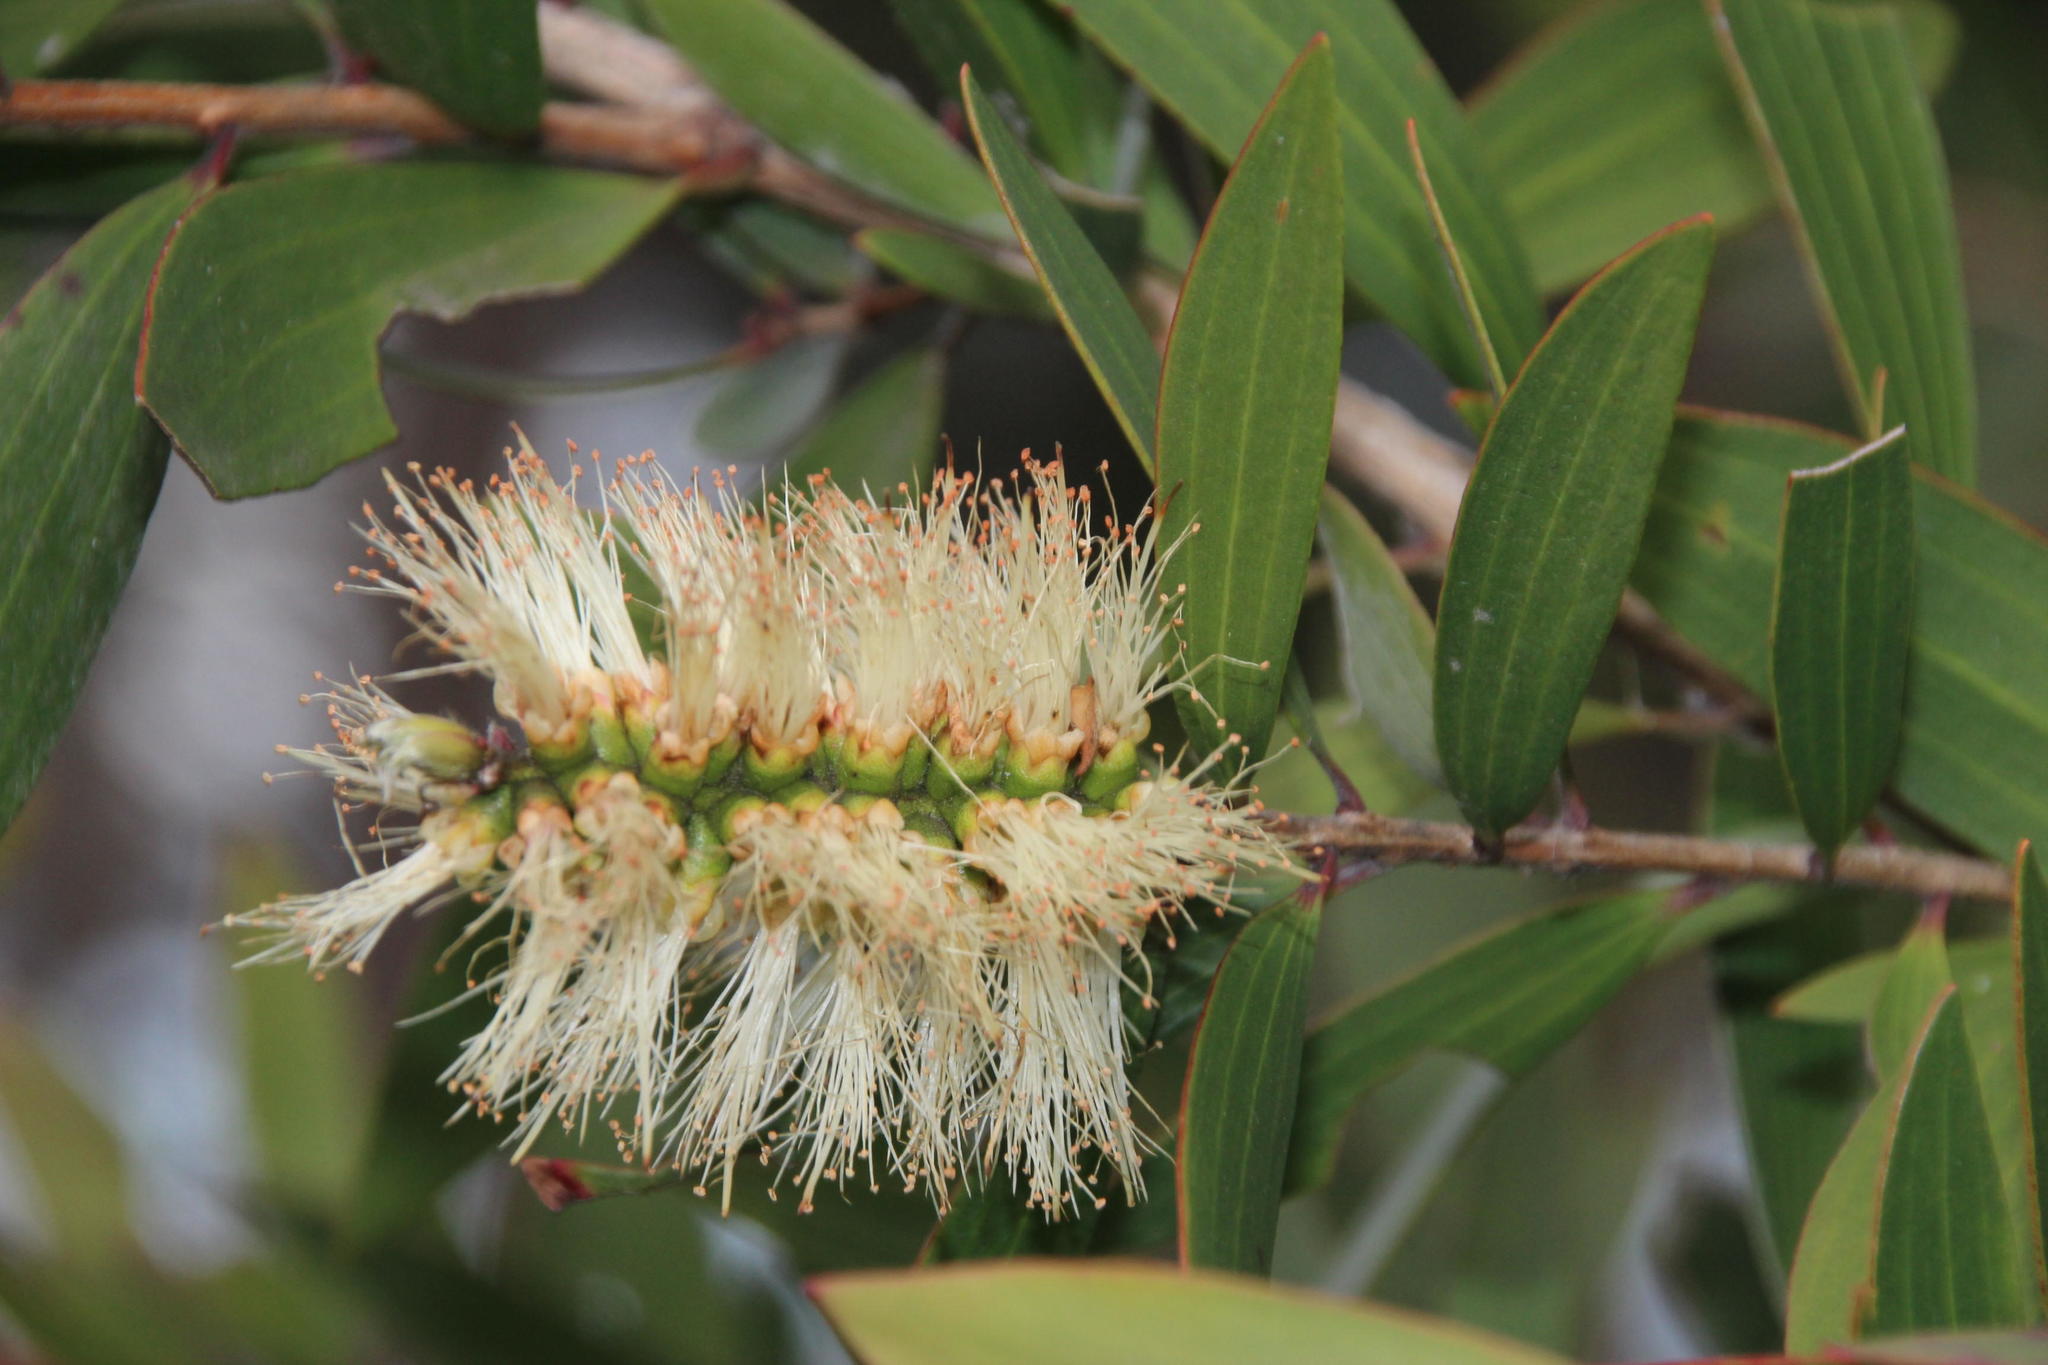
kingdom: Plantae
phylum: Tracheophyta
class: Magnoliopsida
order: Myrtales
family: Myrtaceae
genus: Melaleuca
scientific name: Melaleuca quinquenervia
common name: Punktree
